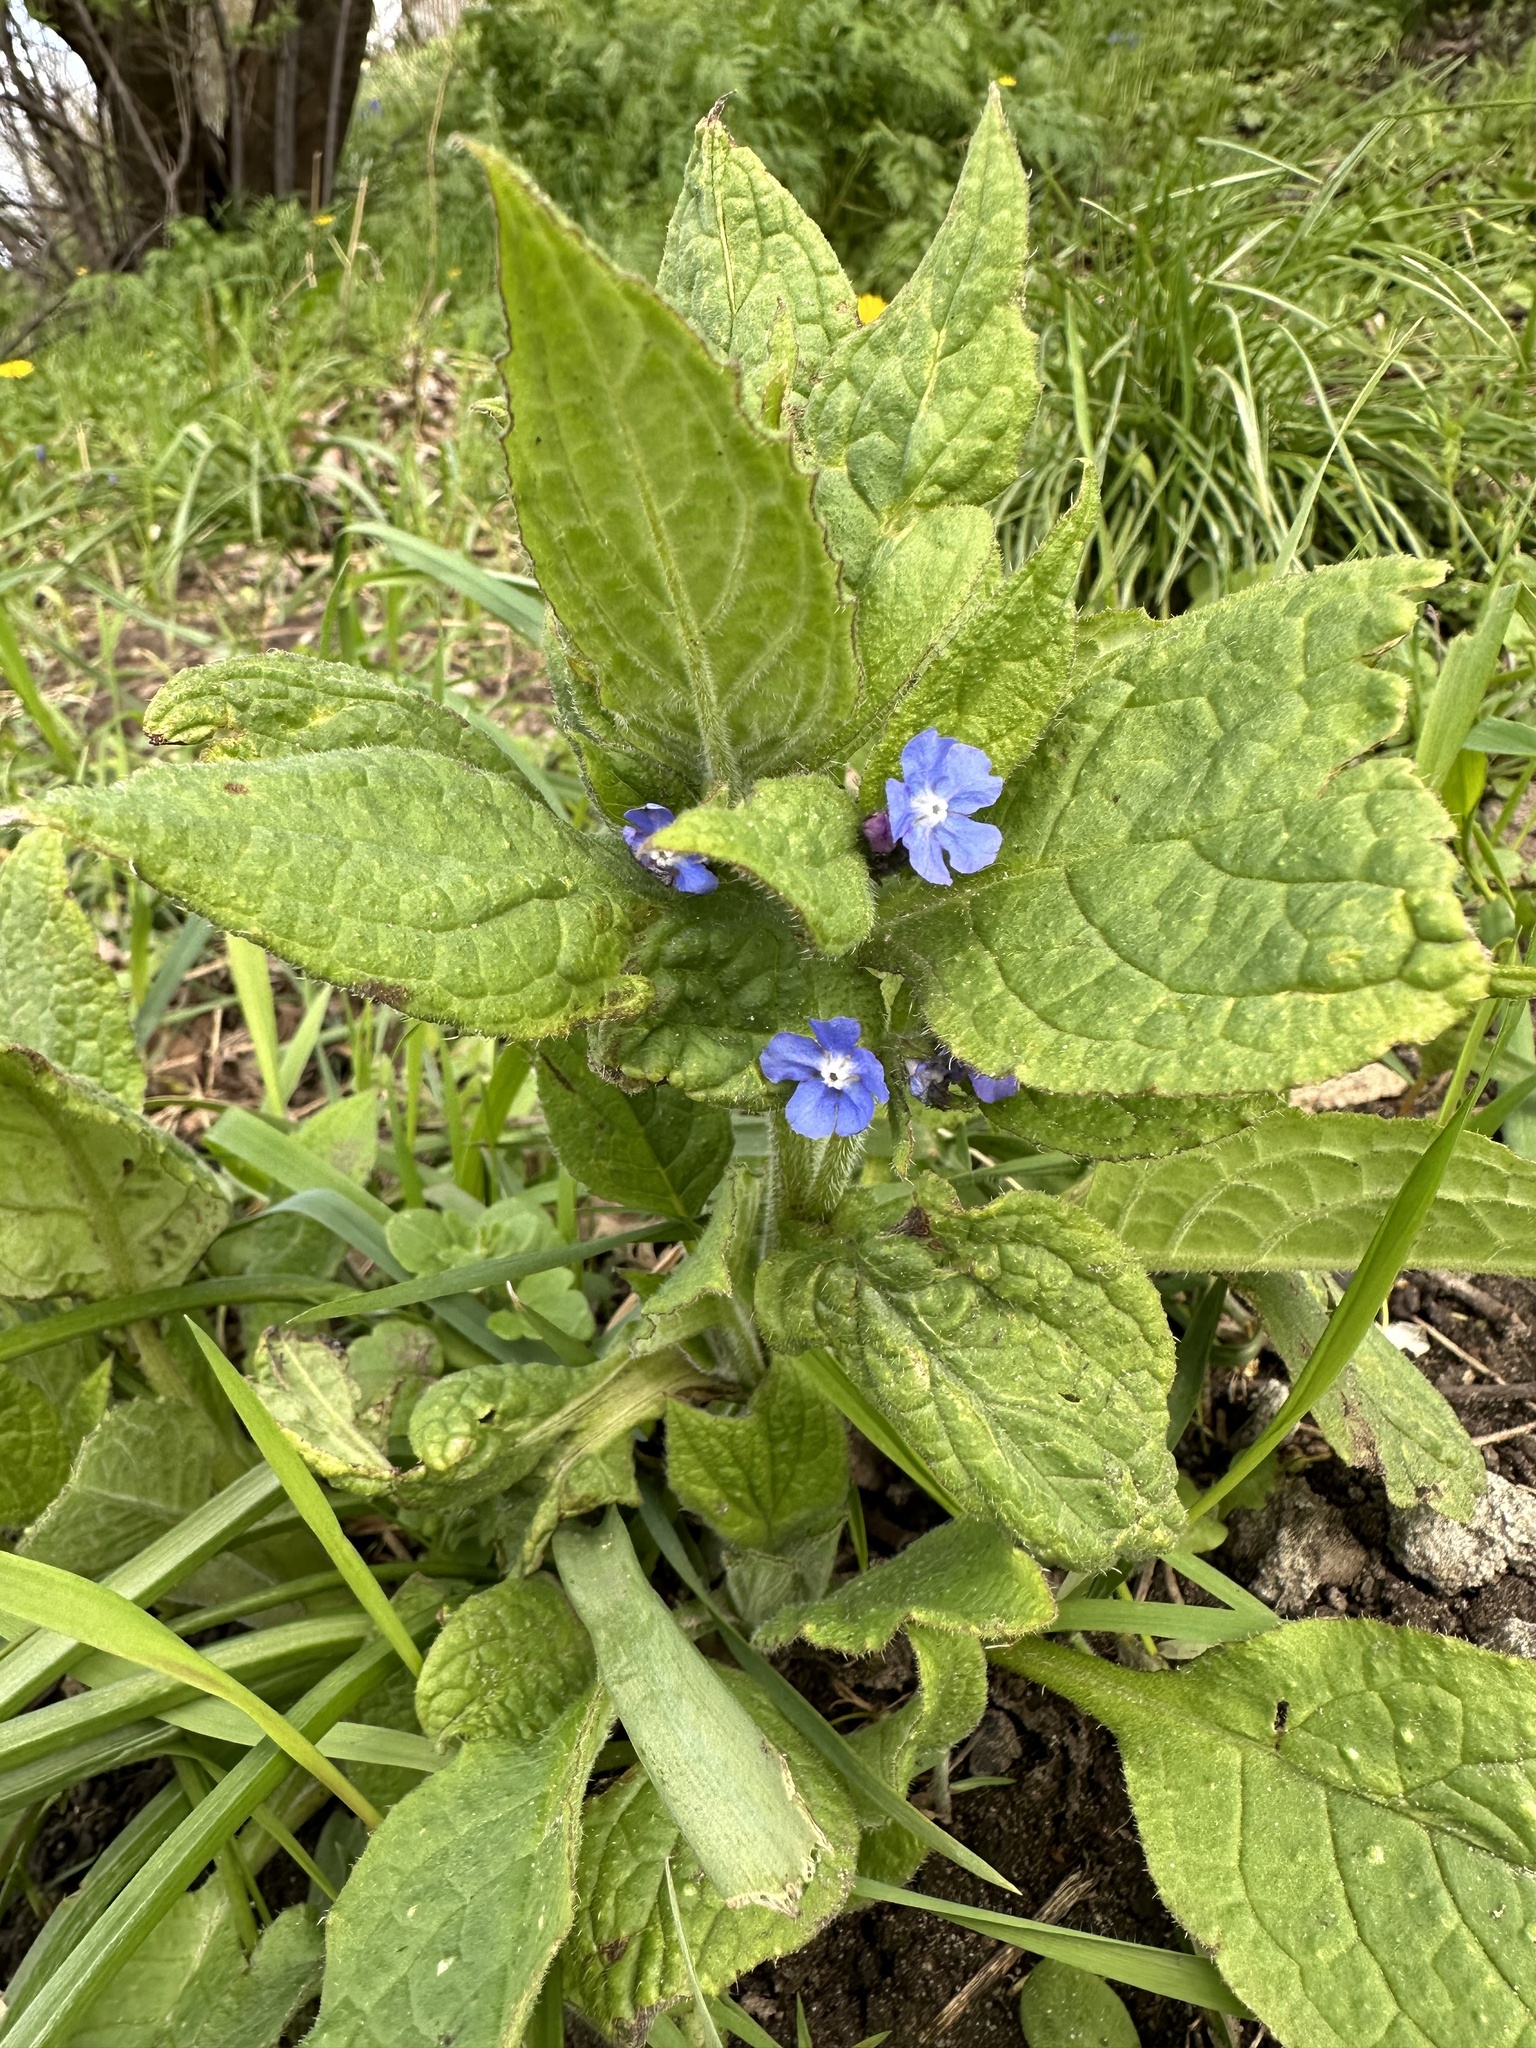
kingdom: Plantae
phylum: Tracheophyta
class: Magnoliopsida
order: Boraginales
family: Boraginaceae
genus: Pentaglottis
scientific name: Pentaglottis sempervirens
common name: Green alkanet
